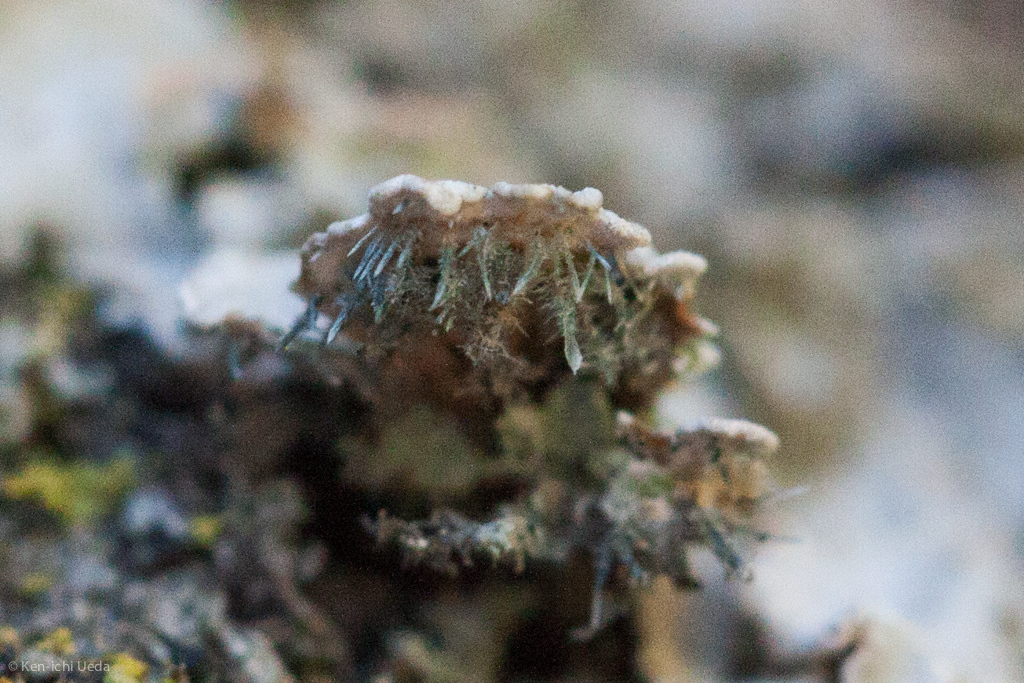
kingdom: Fungi
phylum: Ascomycota
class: Lecanoromycetes
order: Caliciales
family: Physciaceae
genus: Physconia
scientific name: Physconia isidiigera
